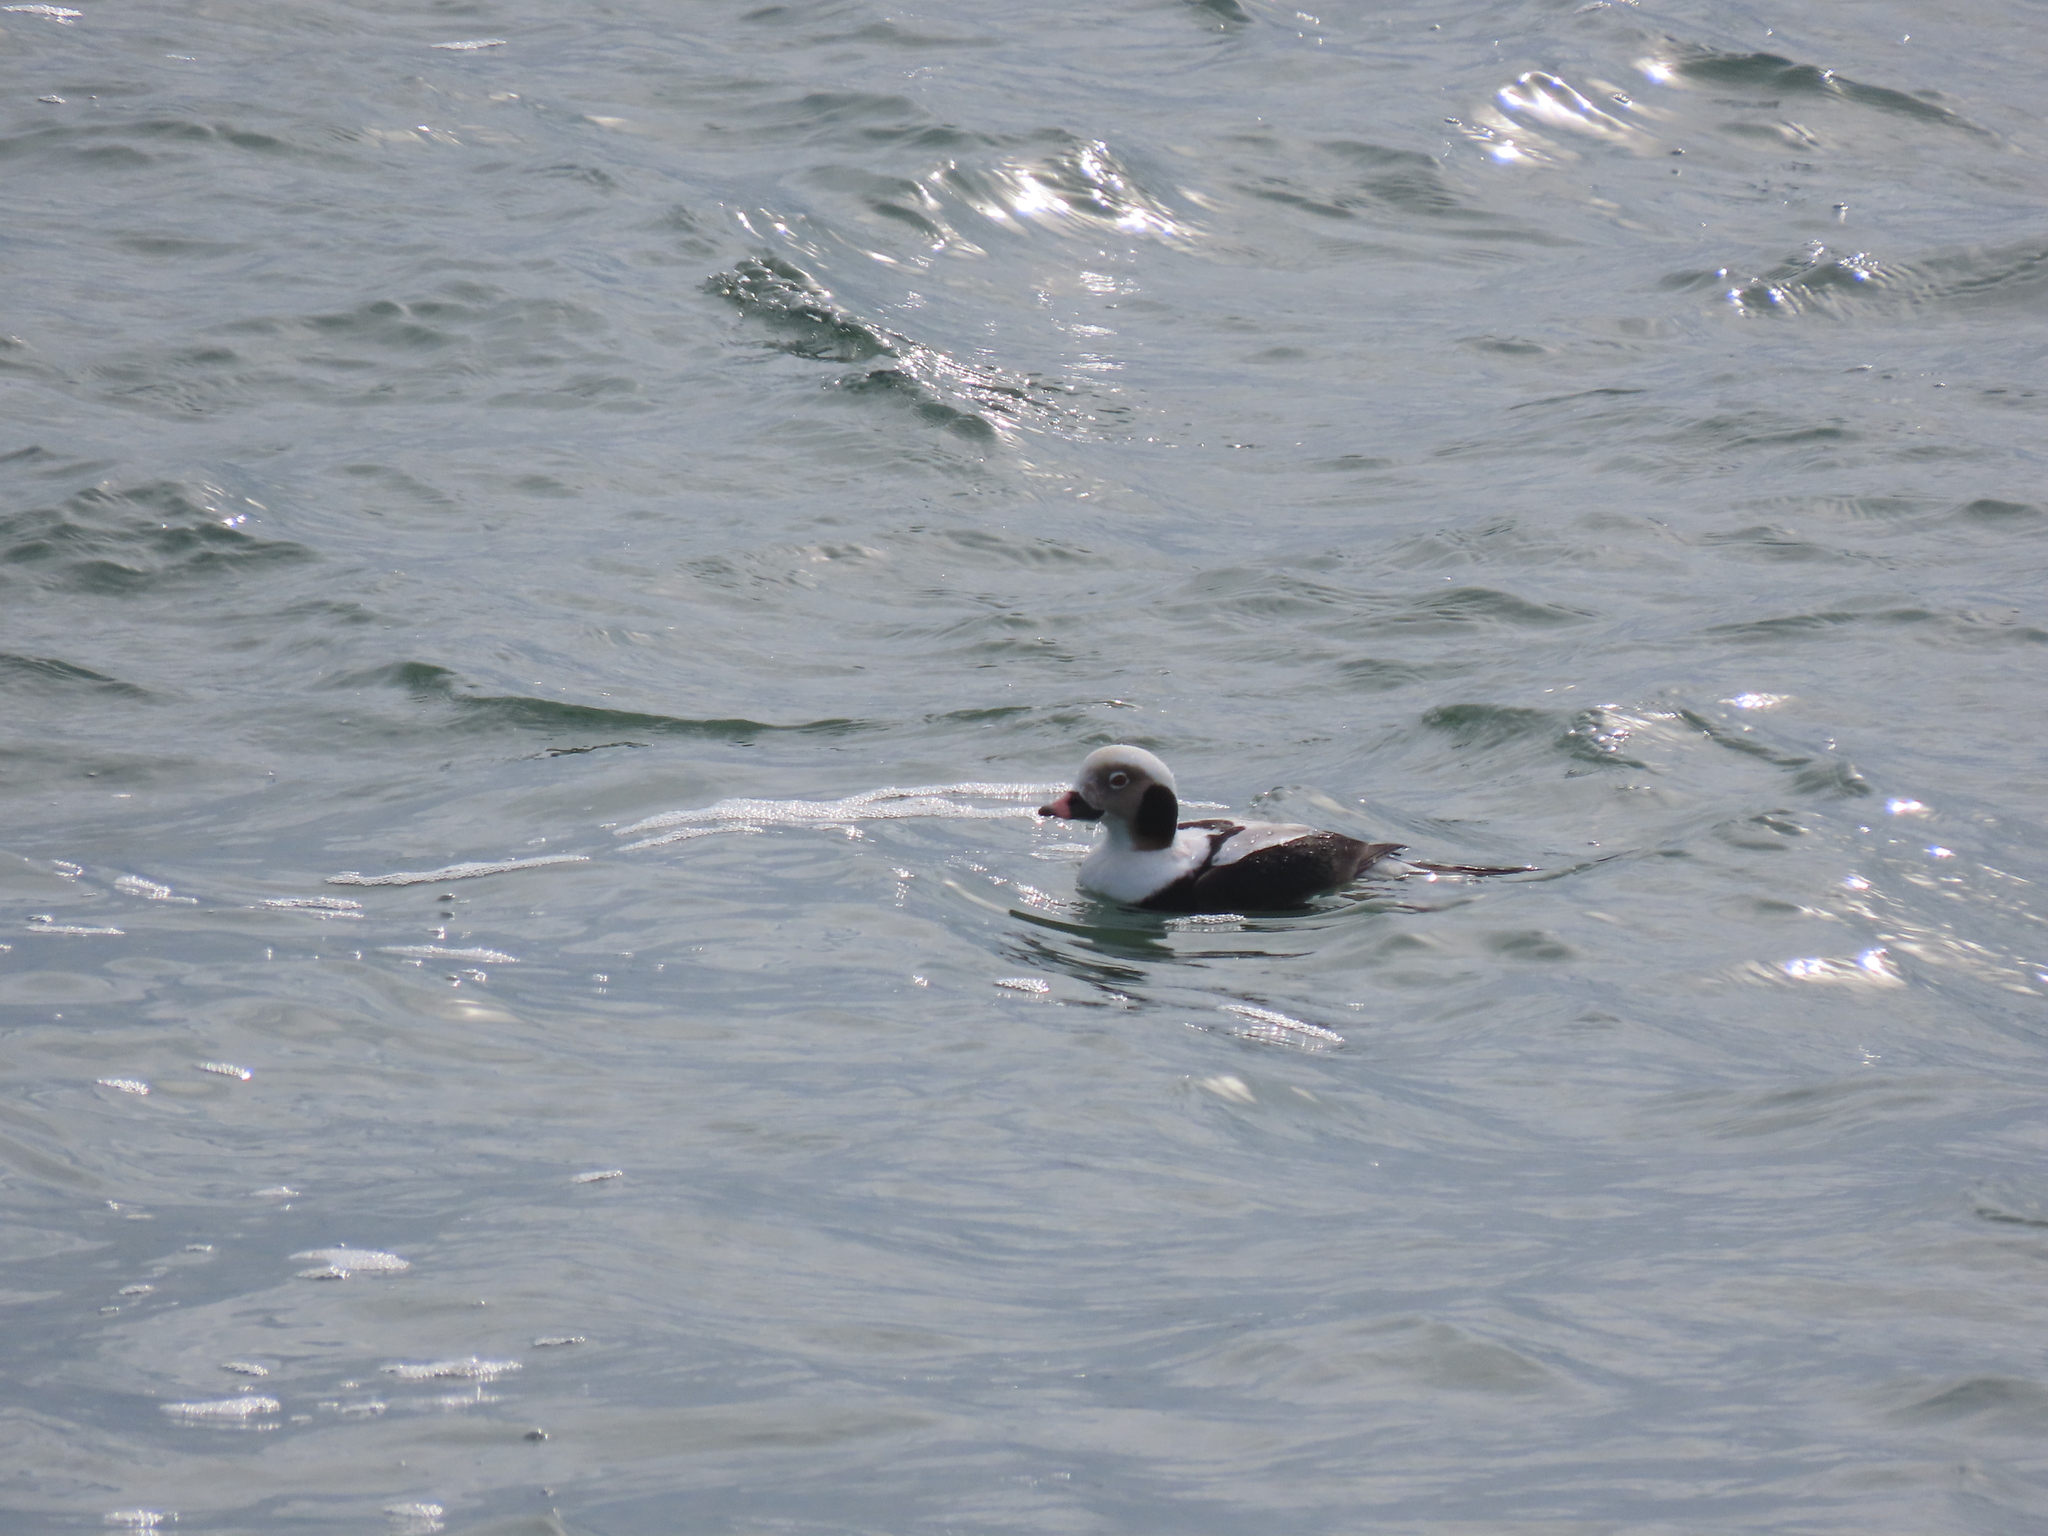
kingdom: Animalia
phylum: Chordata
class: Aves
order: Anseriformes
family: Anatidae
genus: Clangula
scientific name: Clangula hyemalis
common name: Long-tailed duck
